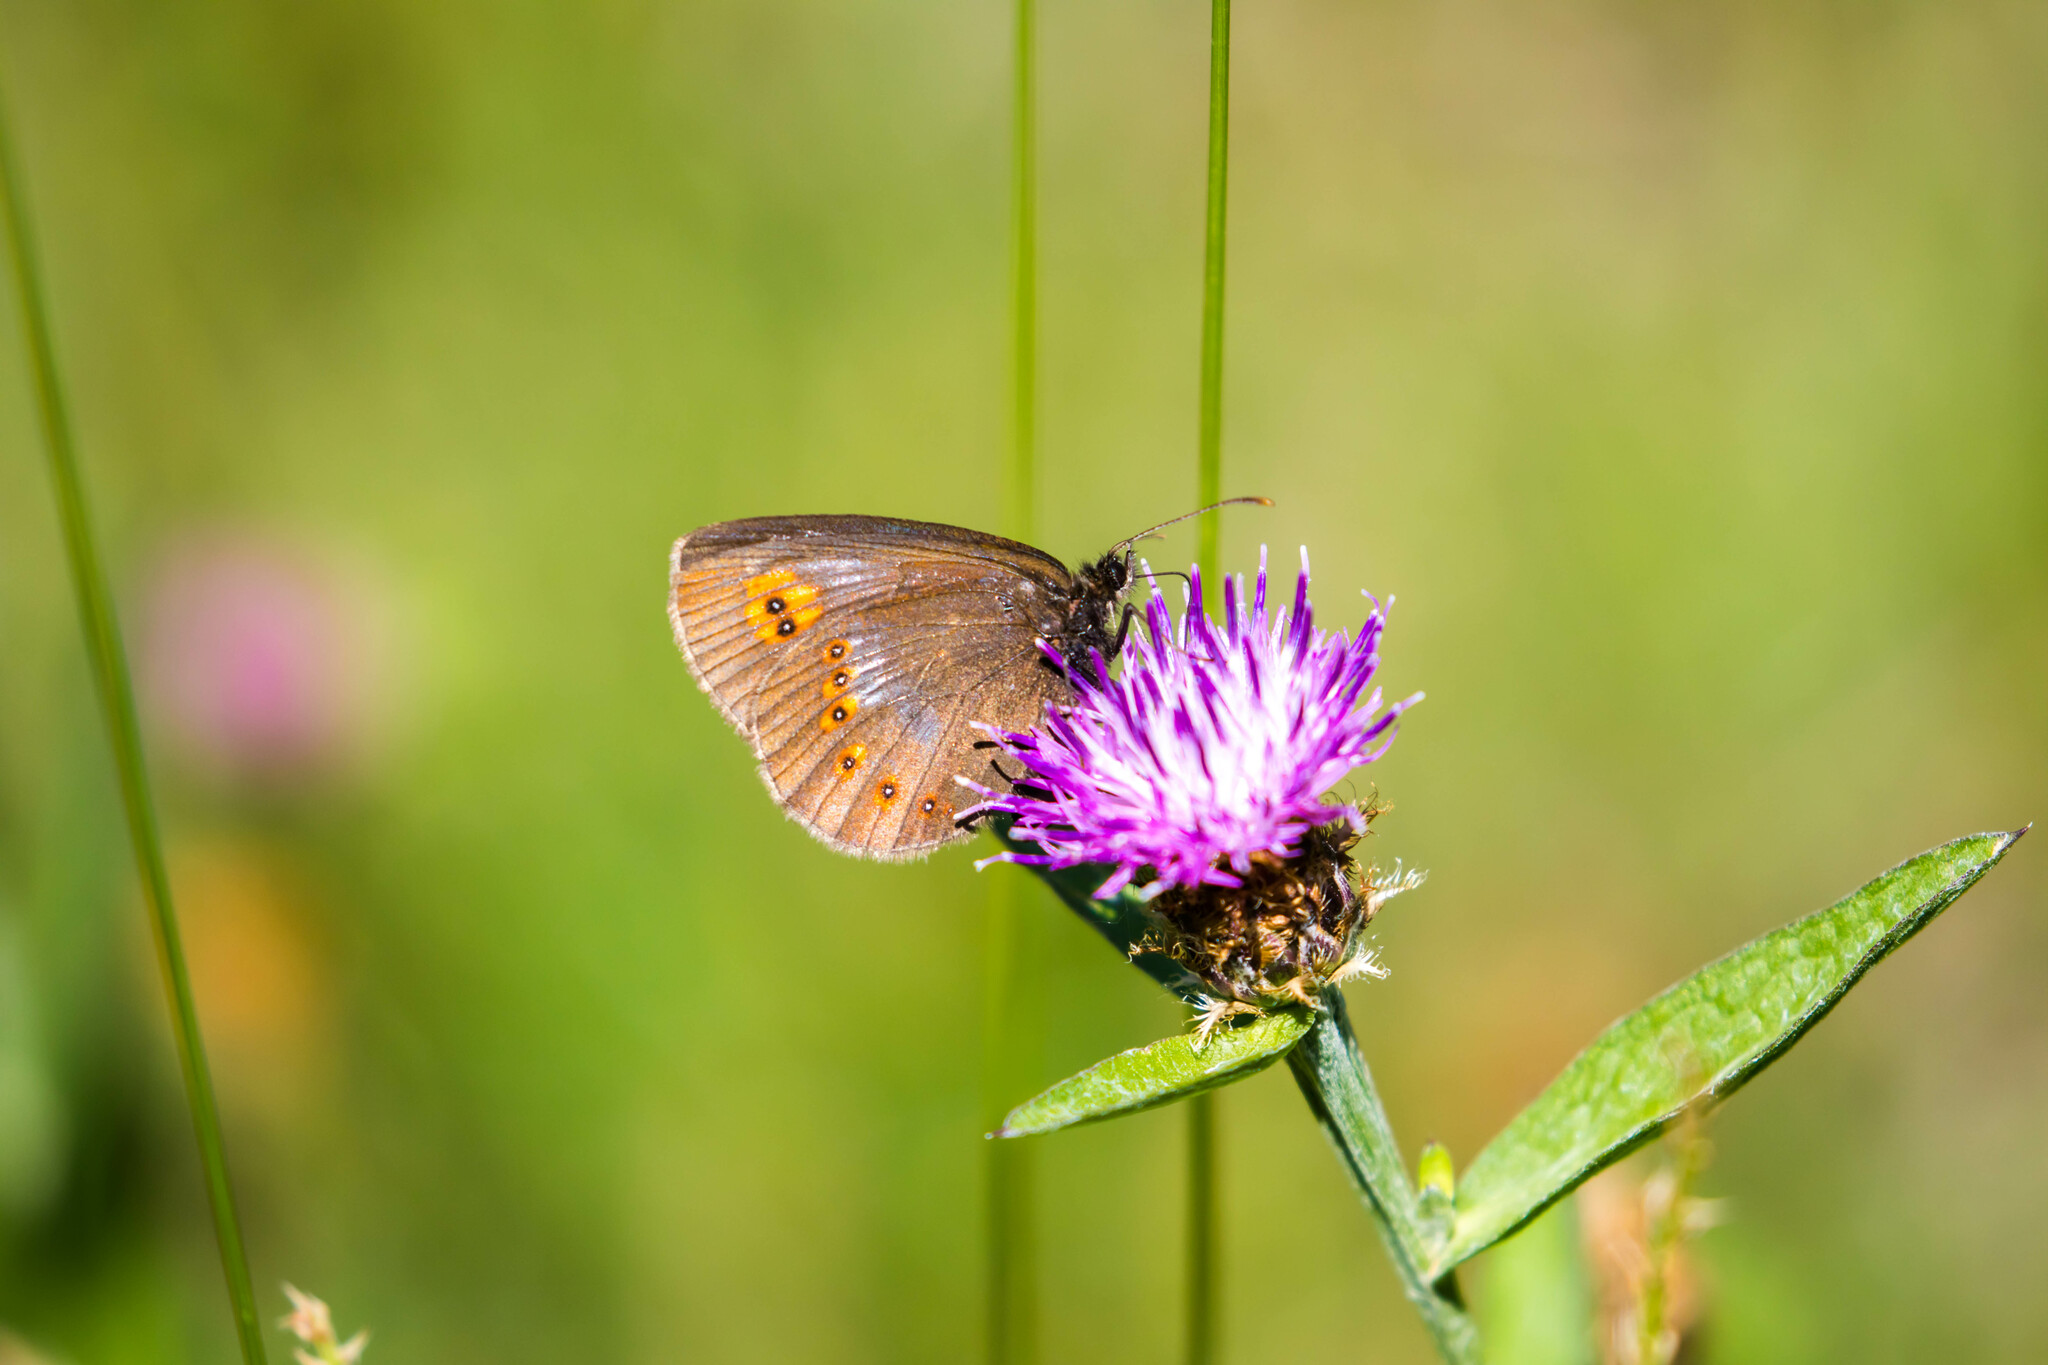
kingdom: Animalia
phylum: Arthropoda
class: Insecta
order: Lepidoptera
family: Nymphalidae
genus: Erebia
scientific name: Erebia alberganus
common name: Almond-eyed ringlet
